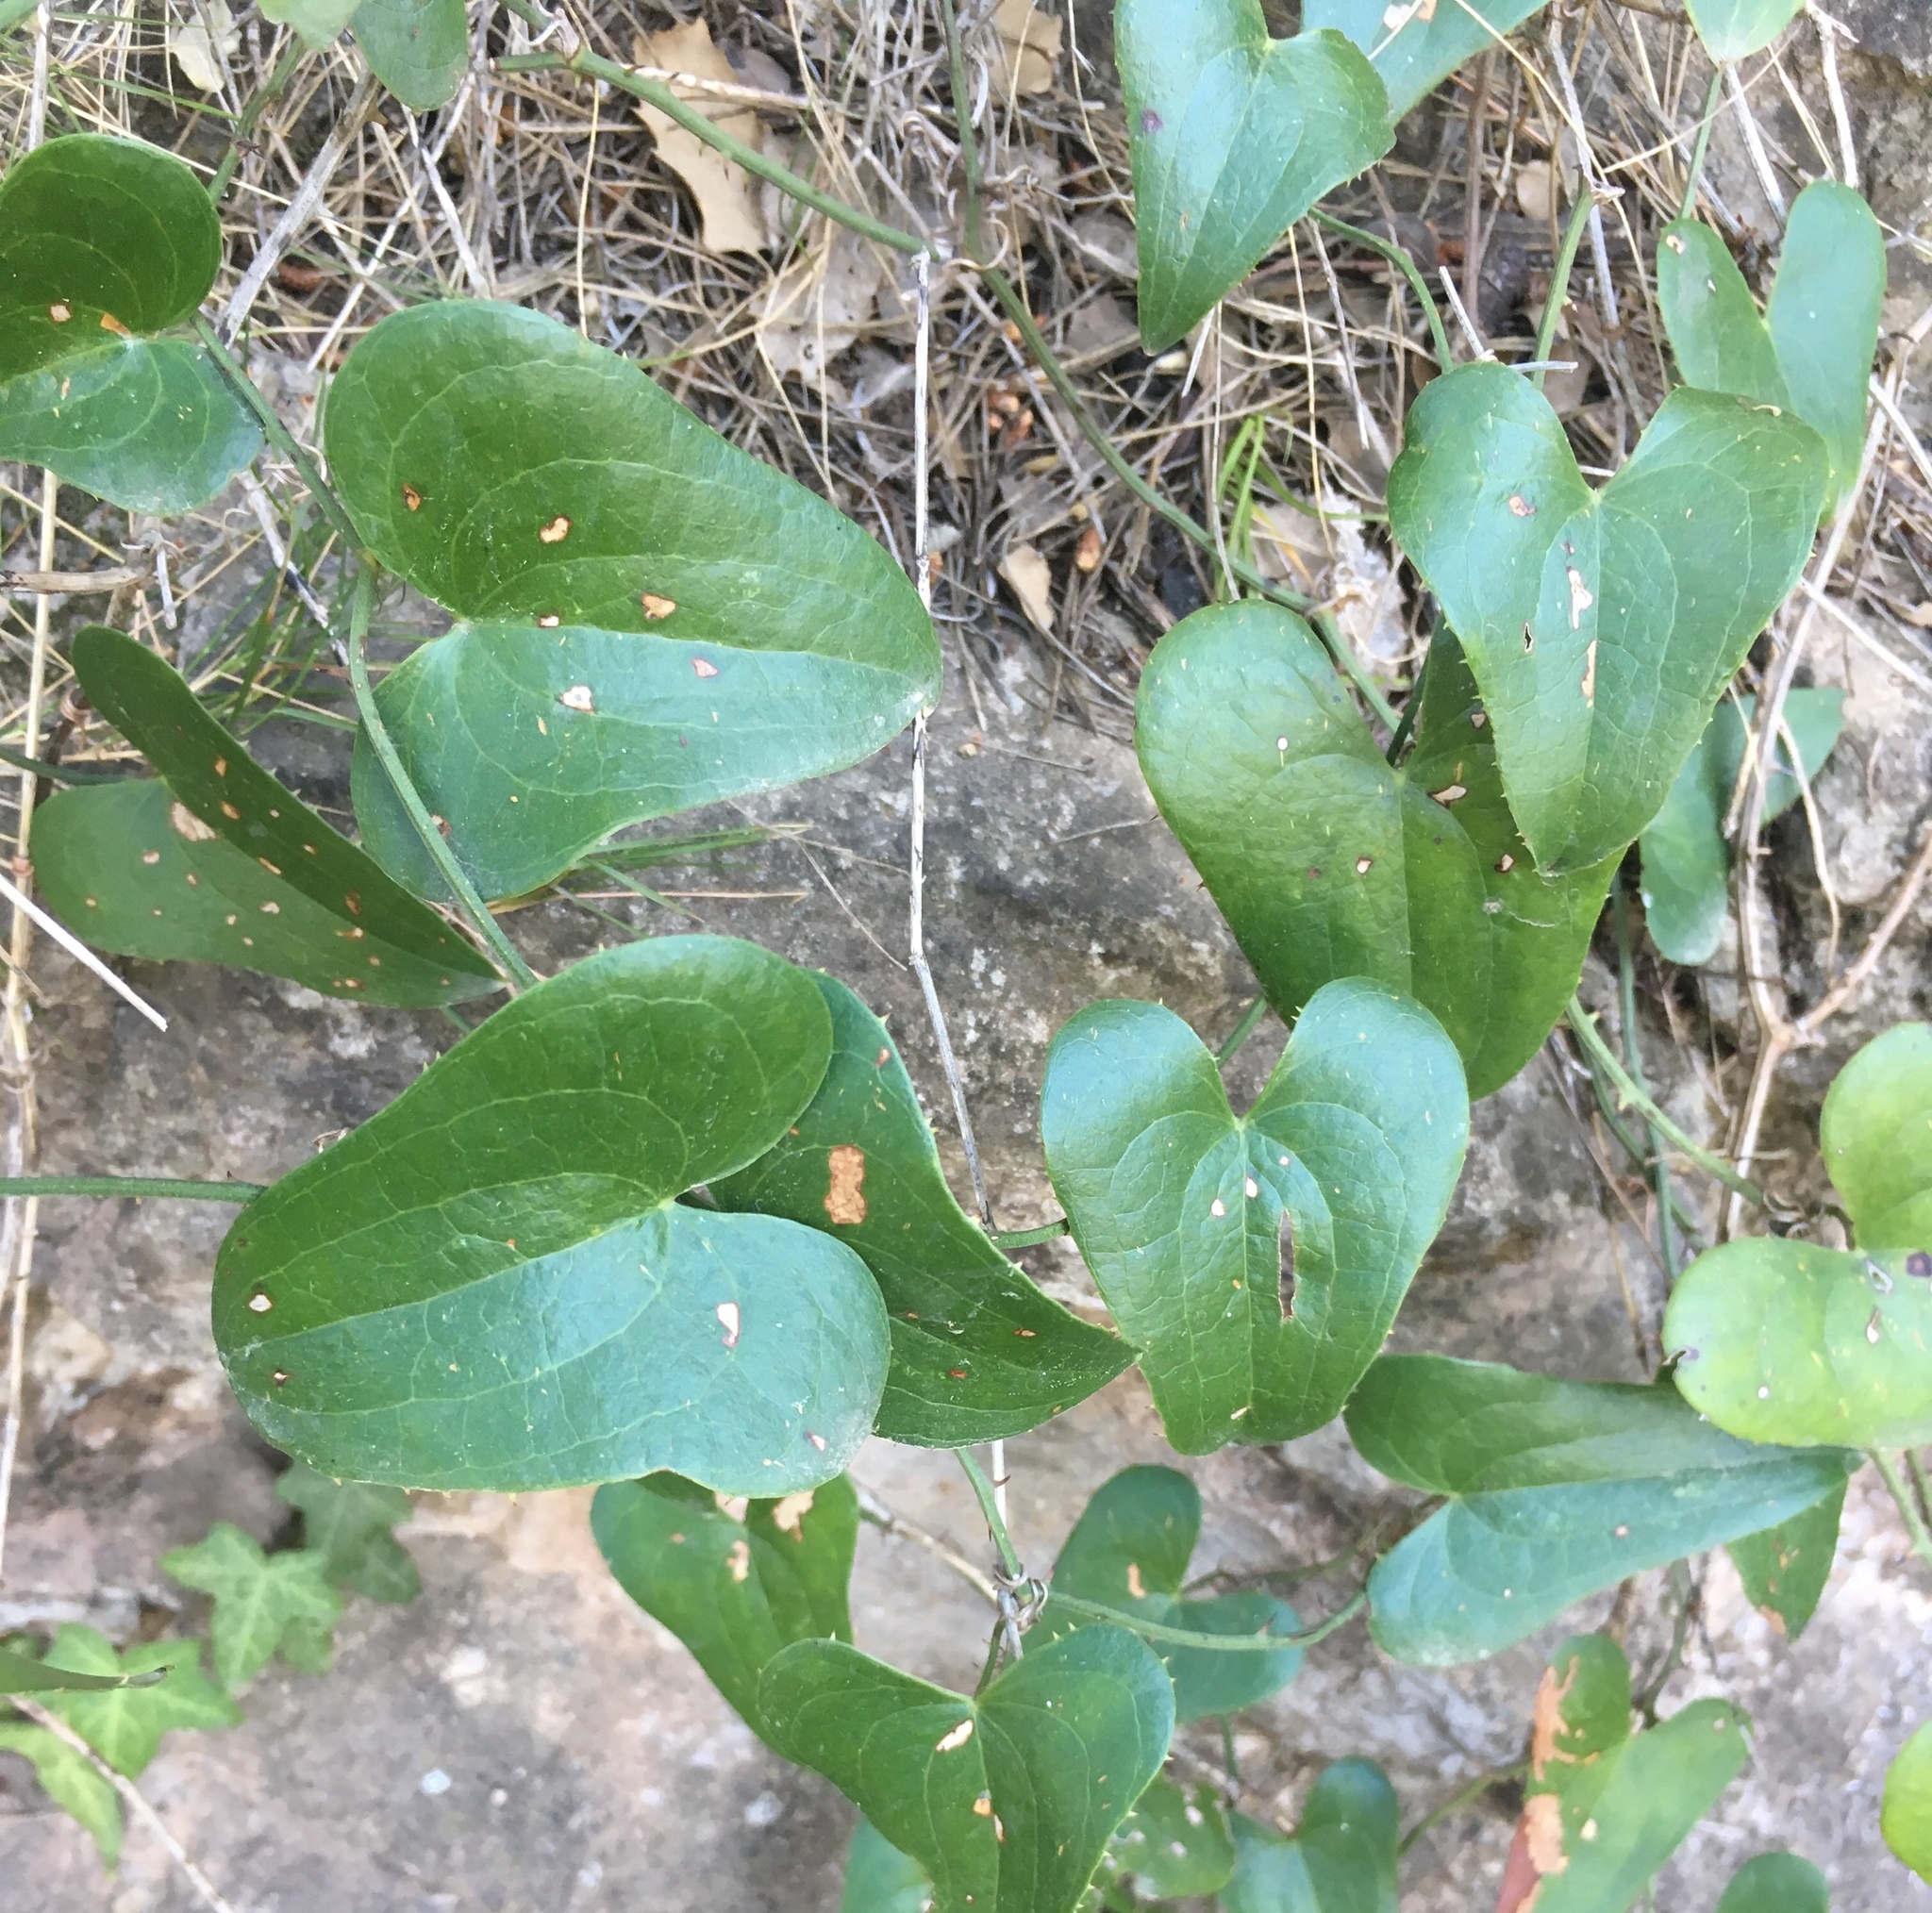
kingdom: Plantae
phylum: Tracheophyta
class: Liliopsida
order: Liliales
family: Smilacaceae
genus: Smilax
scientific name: Smilax aspera
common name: Common smilax
